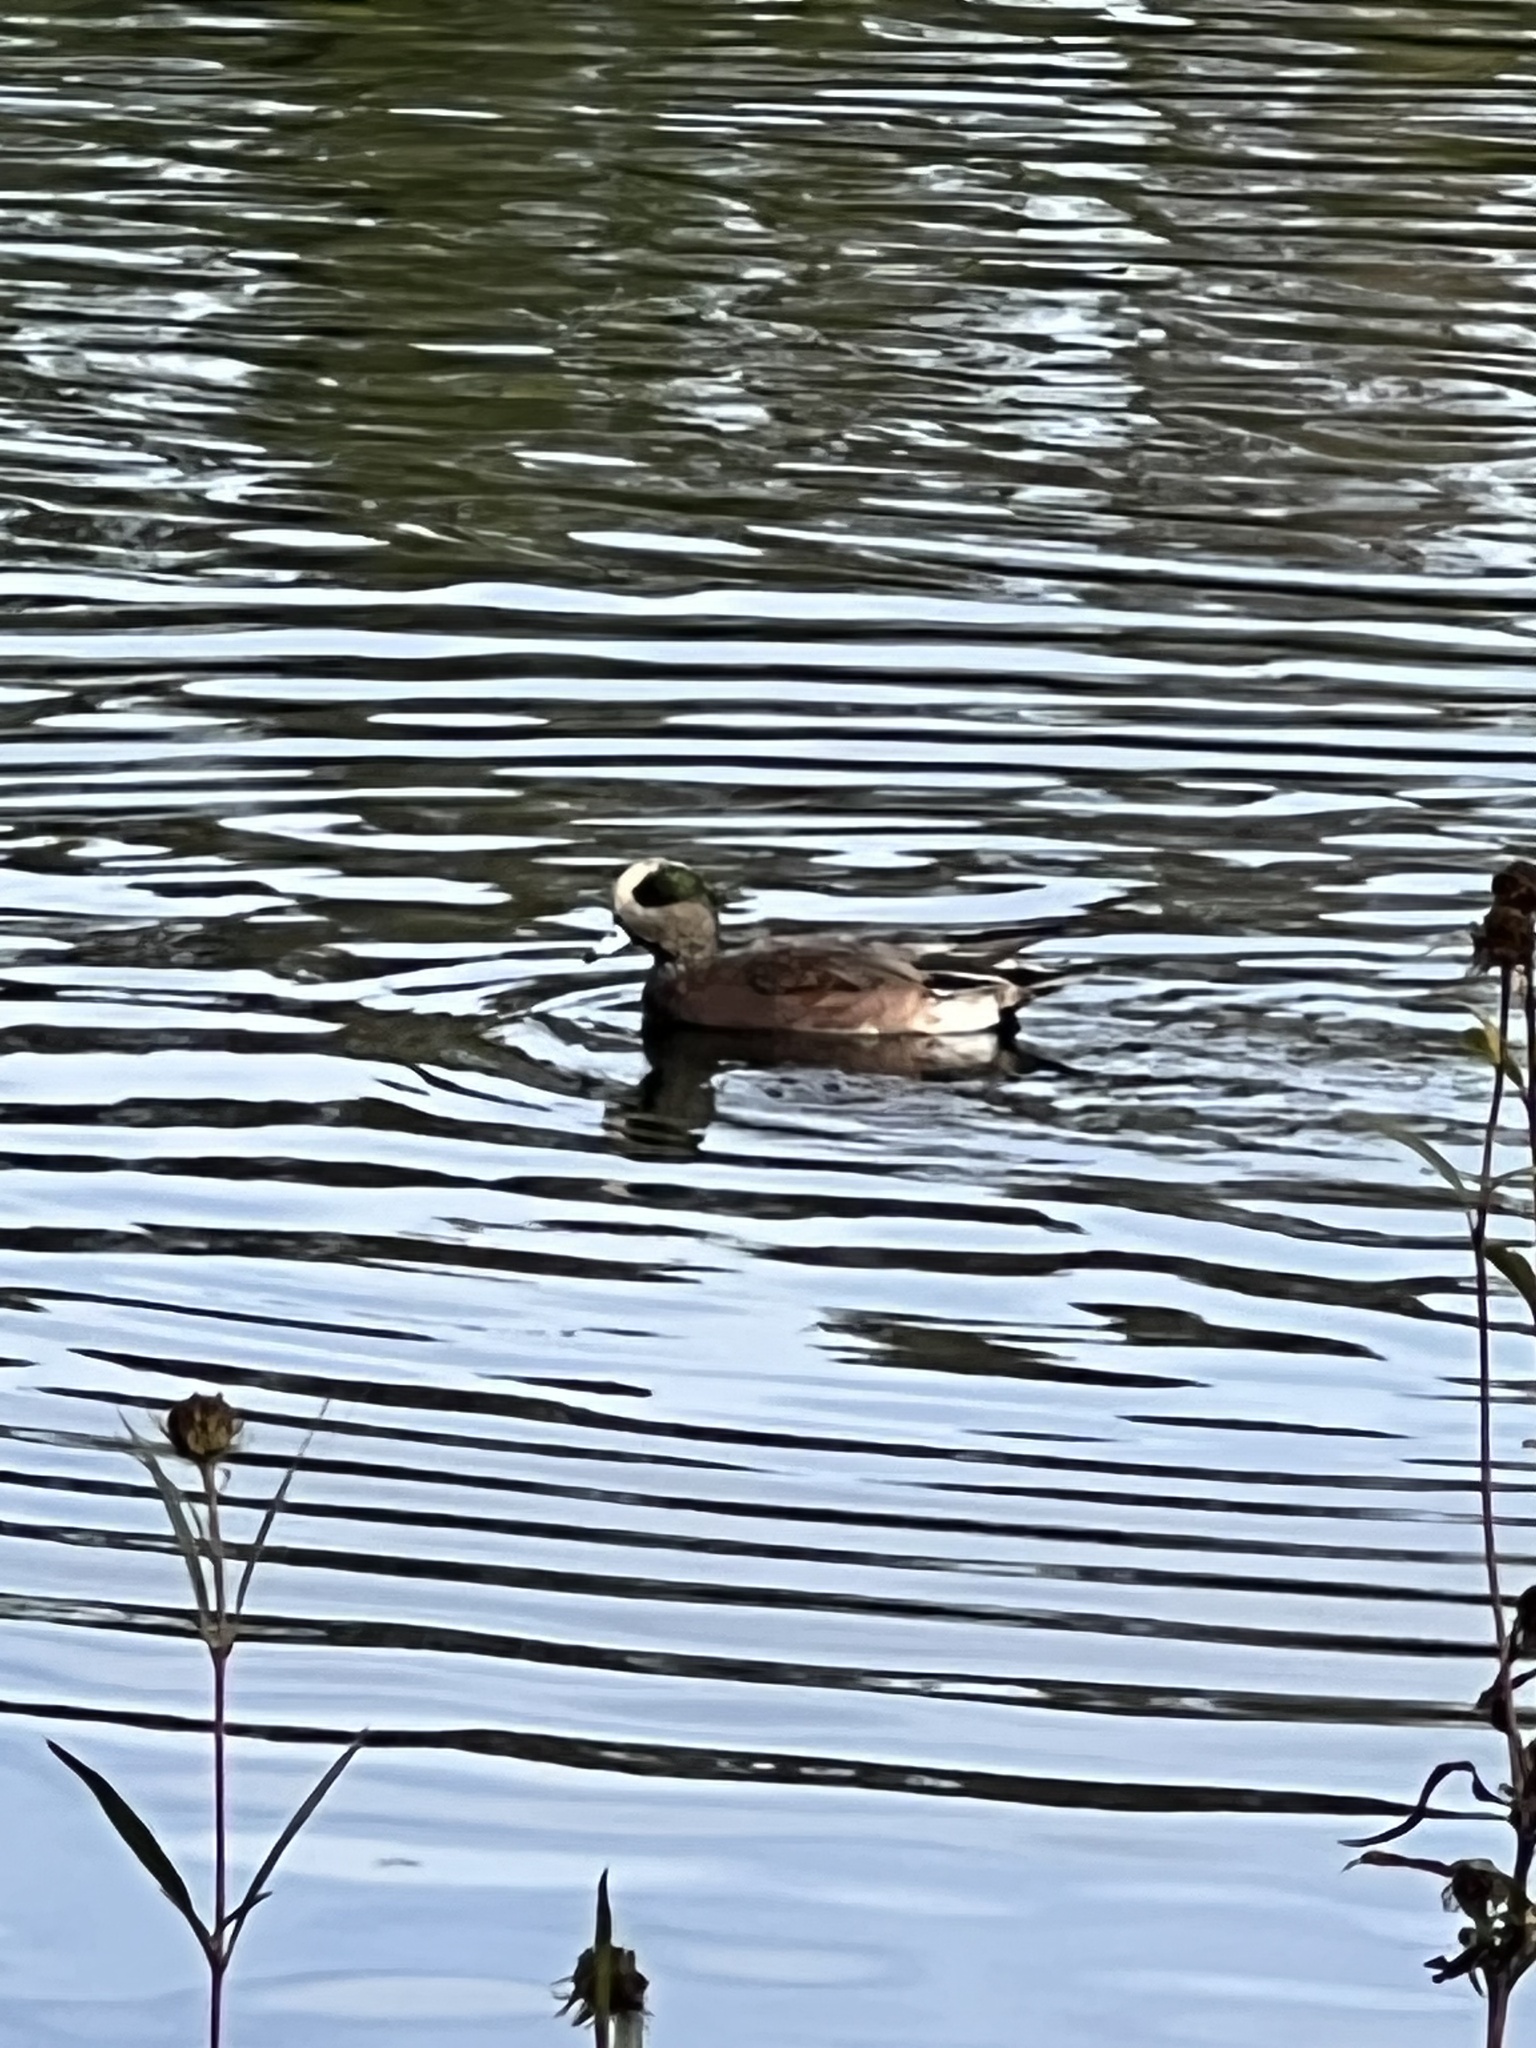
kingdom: Animalia
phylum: Chordata
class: Aves
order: Anseriformes
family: Anatidae
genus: Mareca
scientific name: Mareca americana
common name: American wigeon
